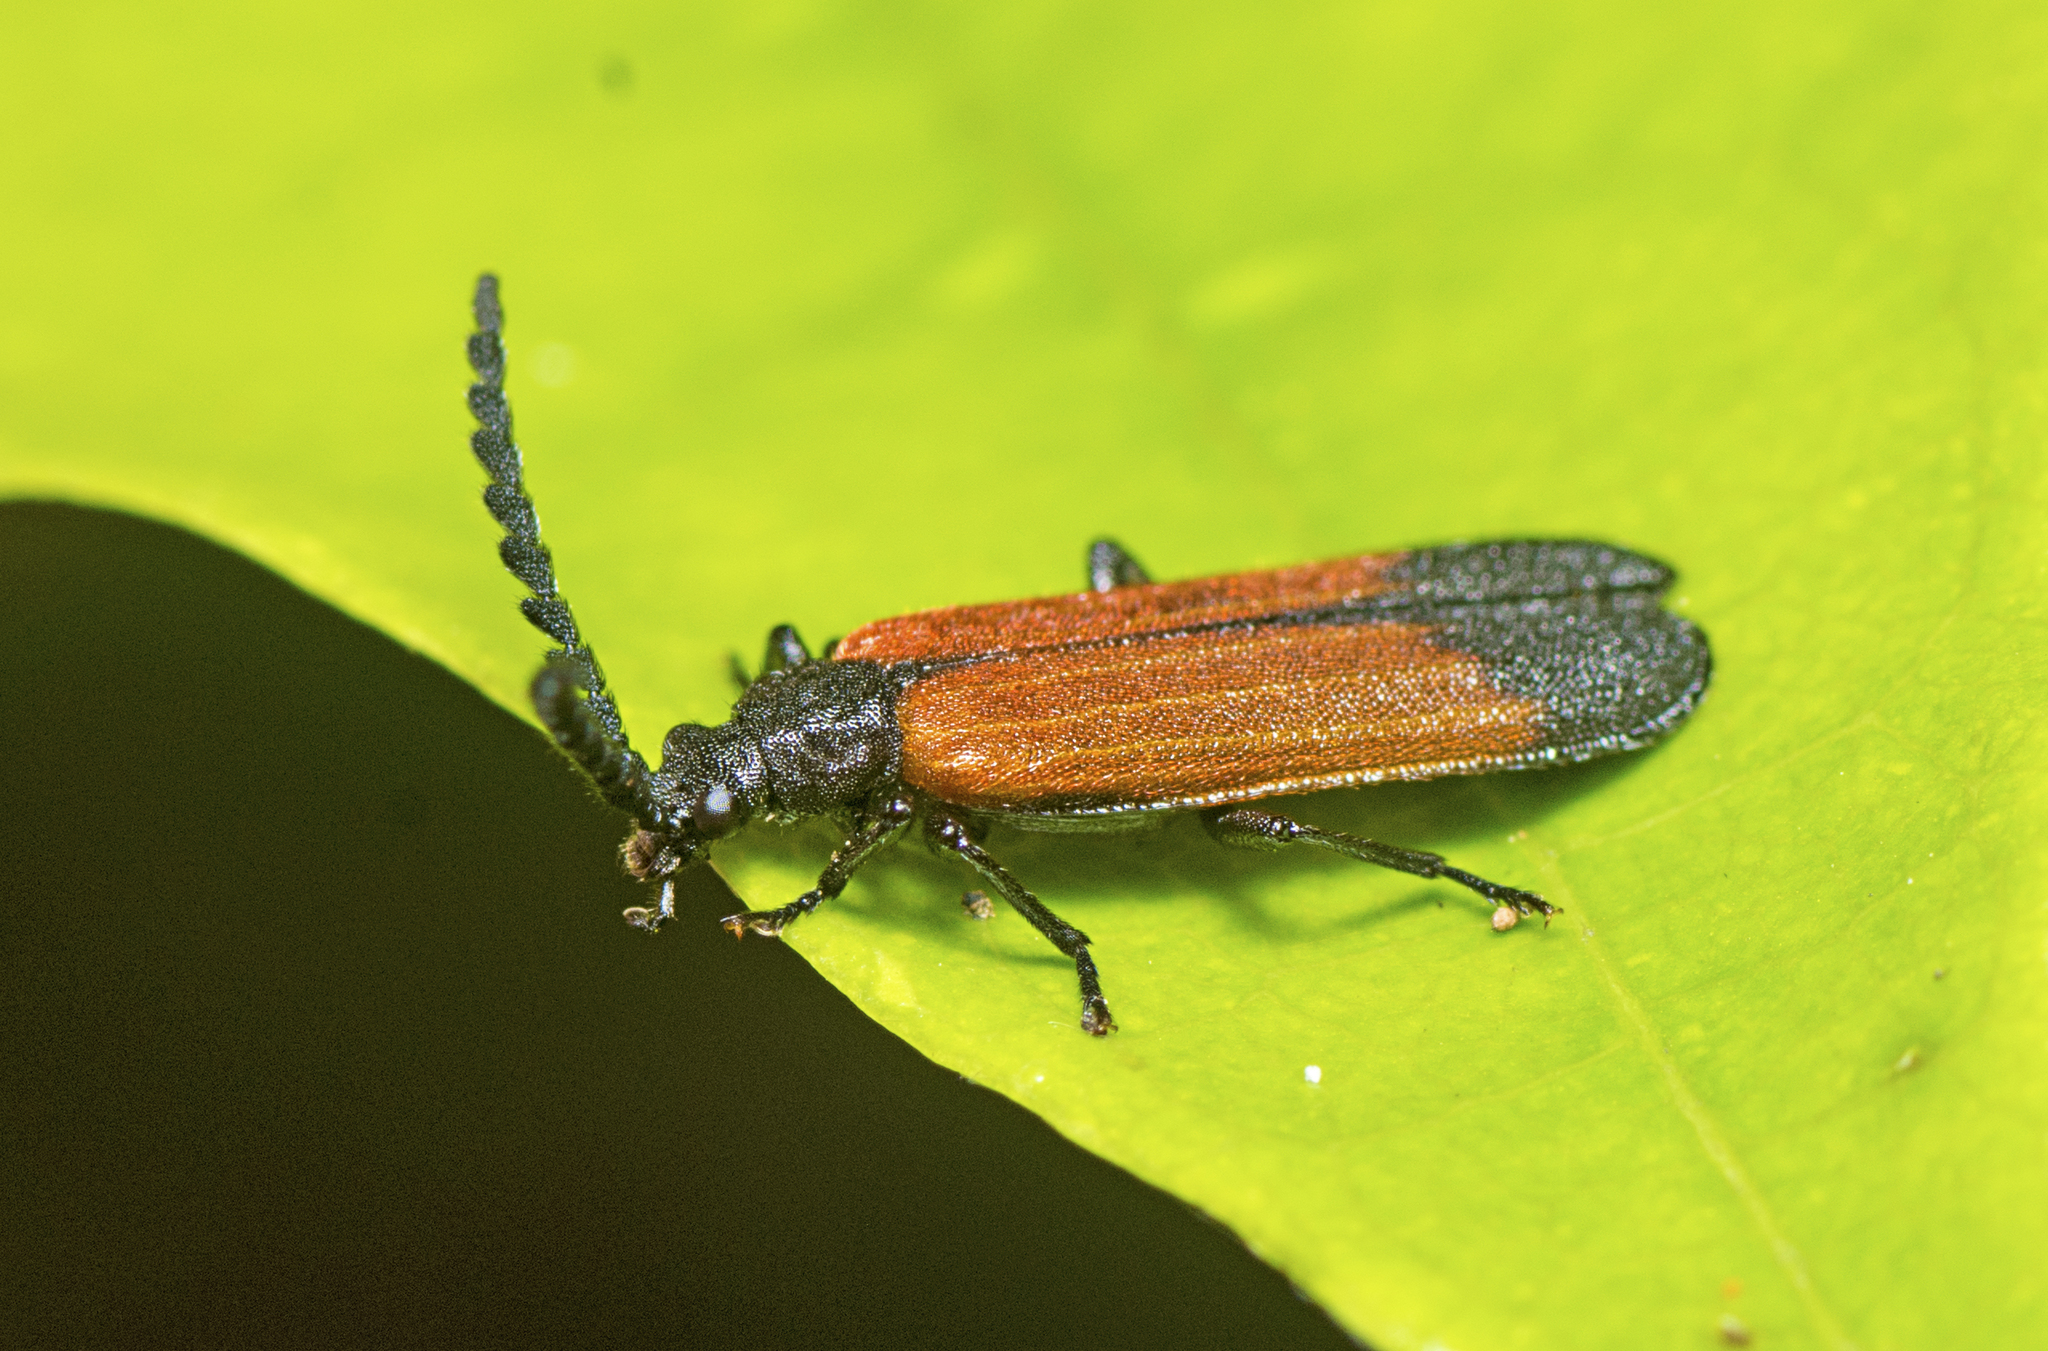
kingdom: Animalia
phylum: Arthropoda
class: Insecta
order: Coleoptera
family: Pythidae
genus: Morpholycus
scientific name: Morpholycus
